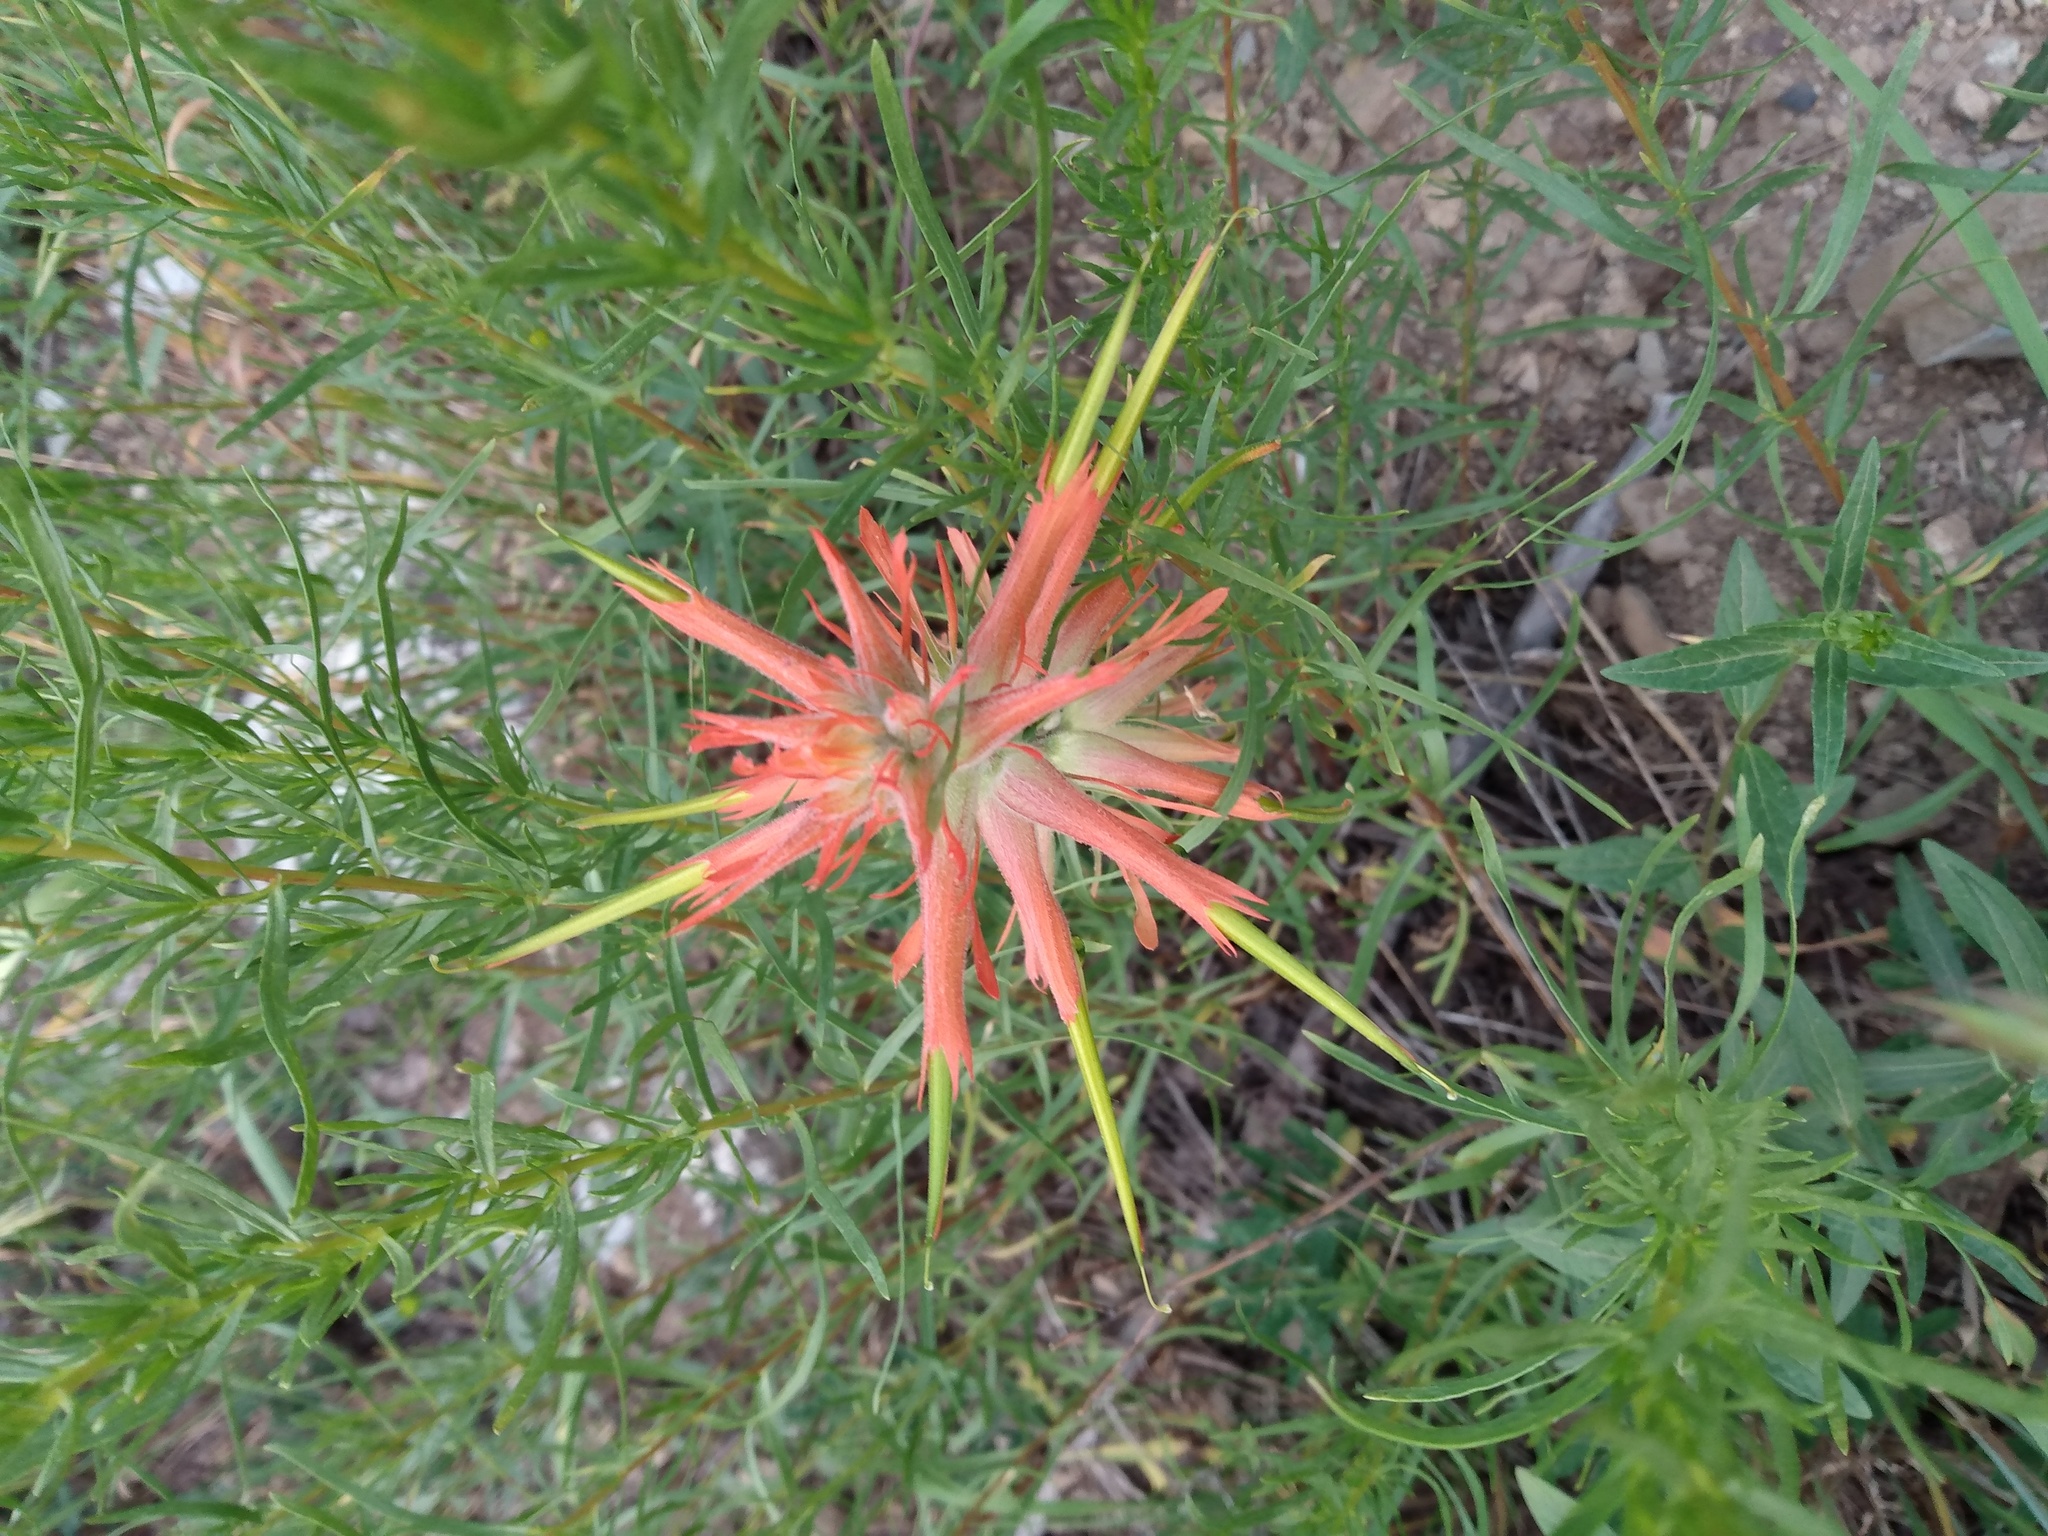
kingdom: Plantae
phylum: Tracheophyta
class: Magnoliopsida
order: Lamiales
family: Orobanchaceae
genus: Castilleja
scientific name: Castilleja linariifolia
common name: Wyoming paintbrush
